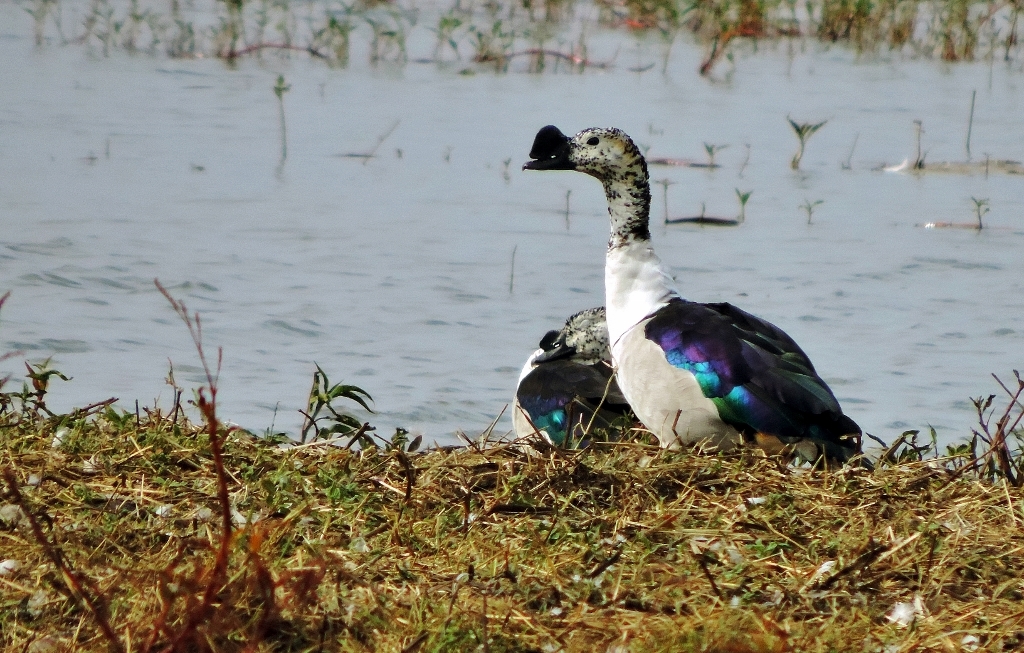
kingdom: Animalia
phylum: Chordata
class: Aves
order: Anseriformes
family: Anatidae
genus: Sarkidiornis
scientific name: Sarkidiornis melanotos
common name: Comb duck
